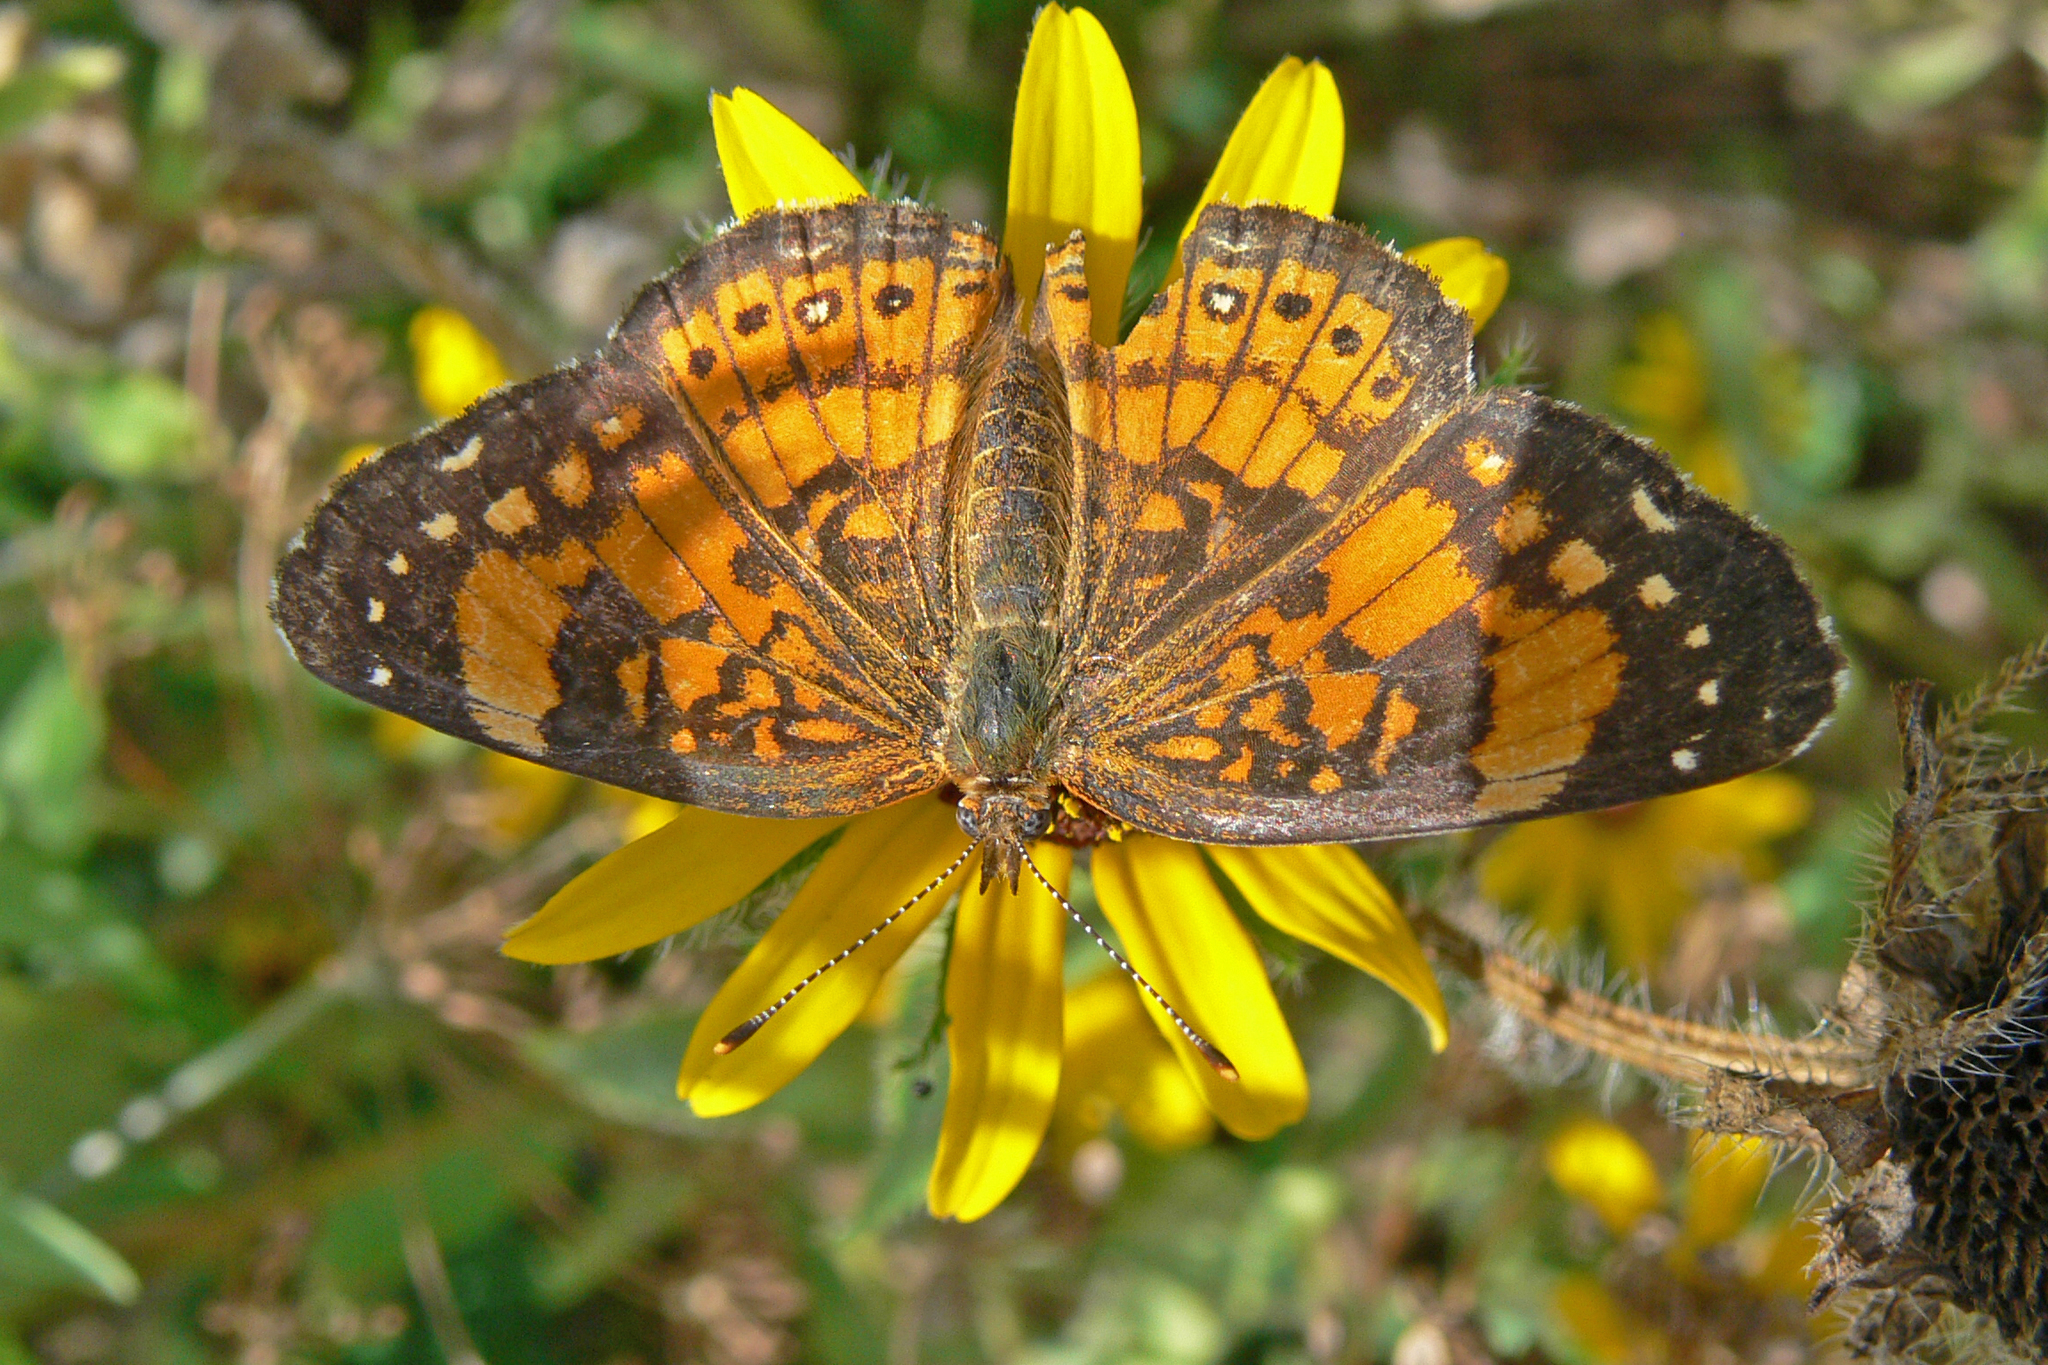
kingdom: Animalia
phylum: Arthropoda
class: Insecta
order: Lepidoptera
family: Nymphalidae
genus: Chlosyne
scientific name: Chlosyne nycteis
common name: Silvery checkerspot
